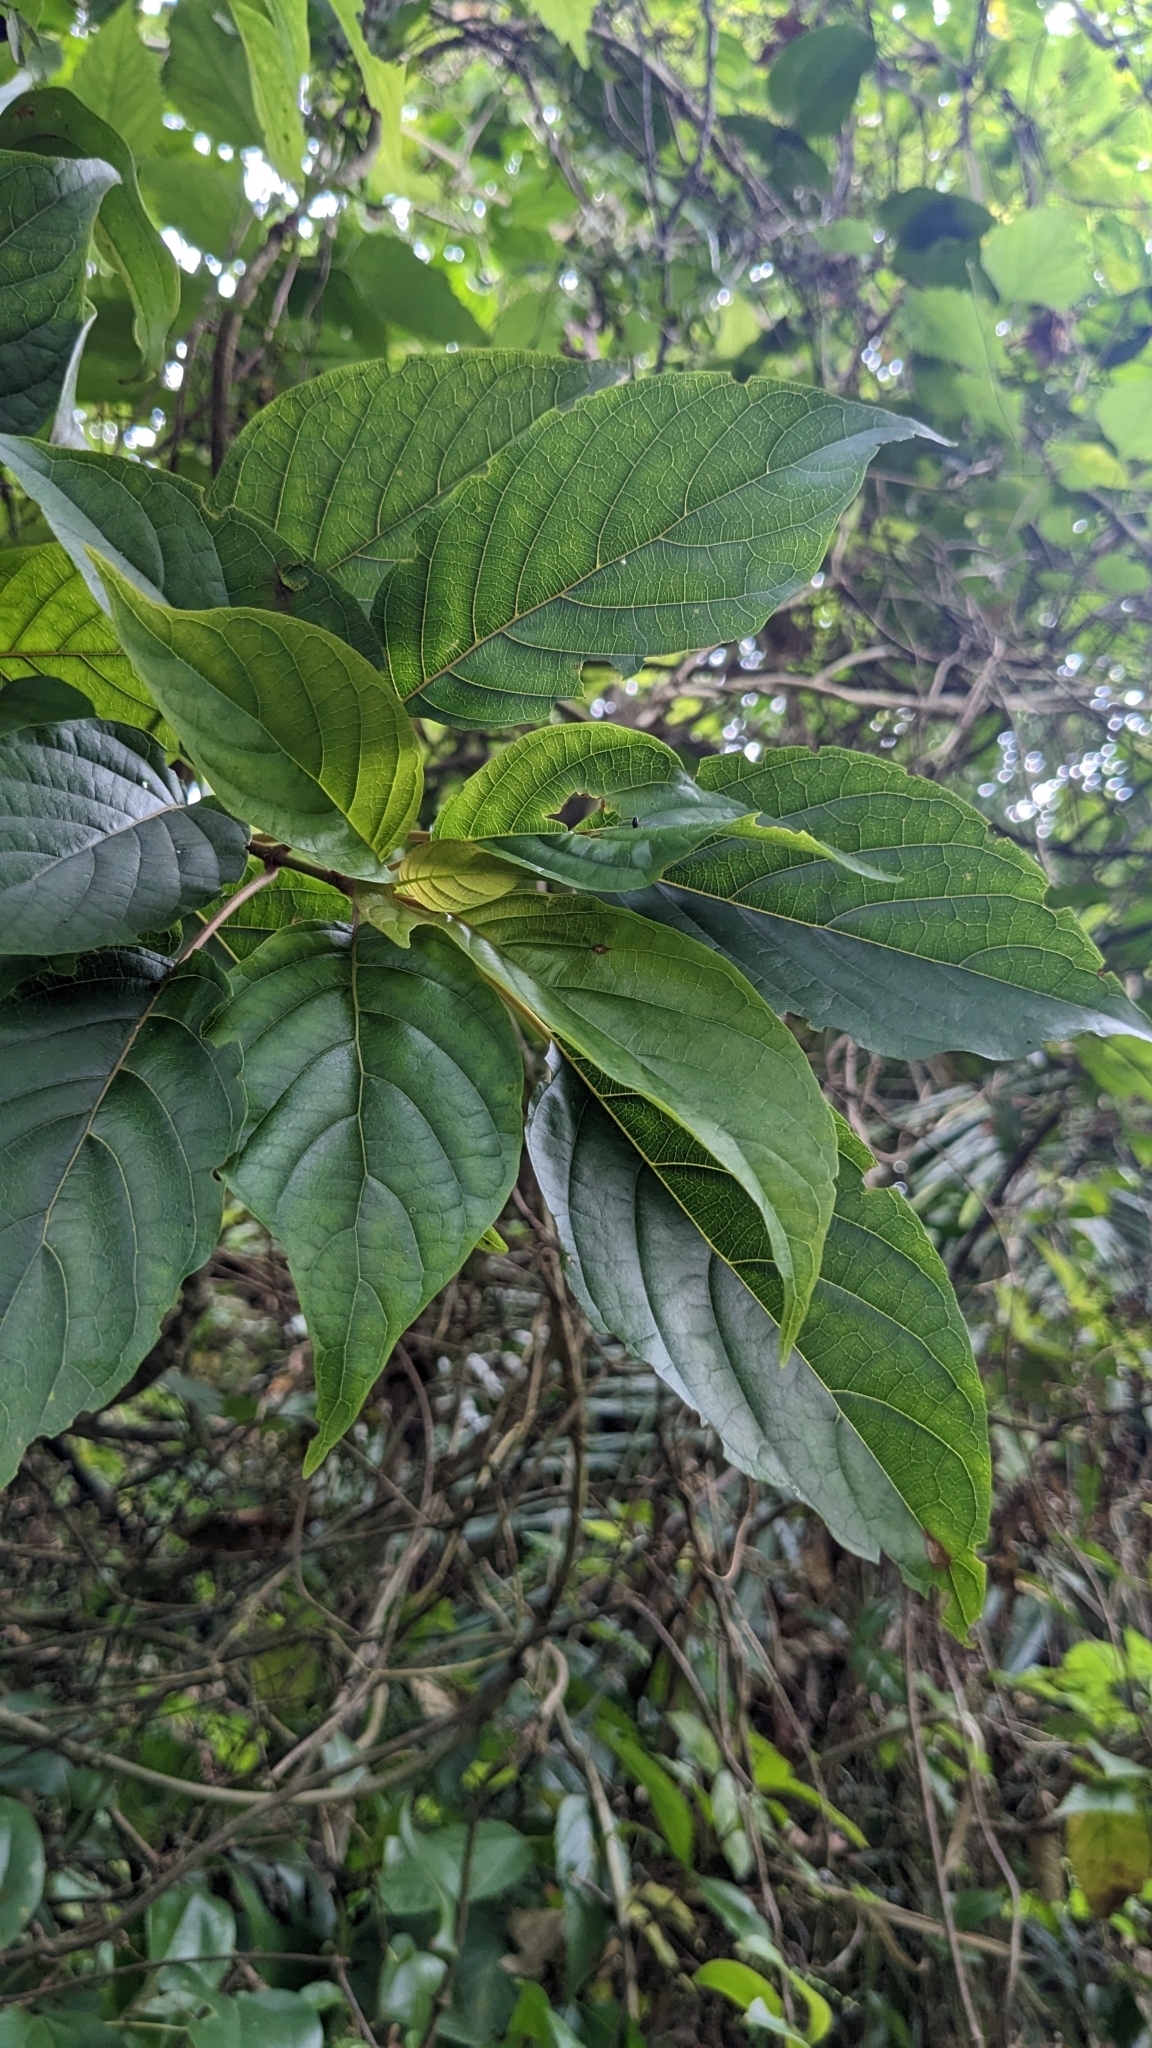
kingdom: Plantae
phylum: Tracheophyta
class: Magnoliopsida
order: Gentianales
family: Rubiaceae
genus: Adina
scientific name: Adina racemosa
